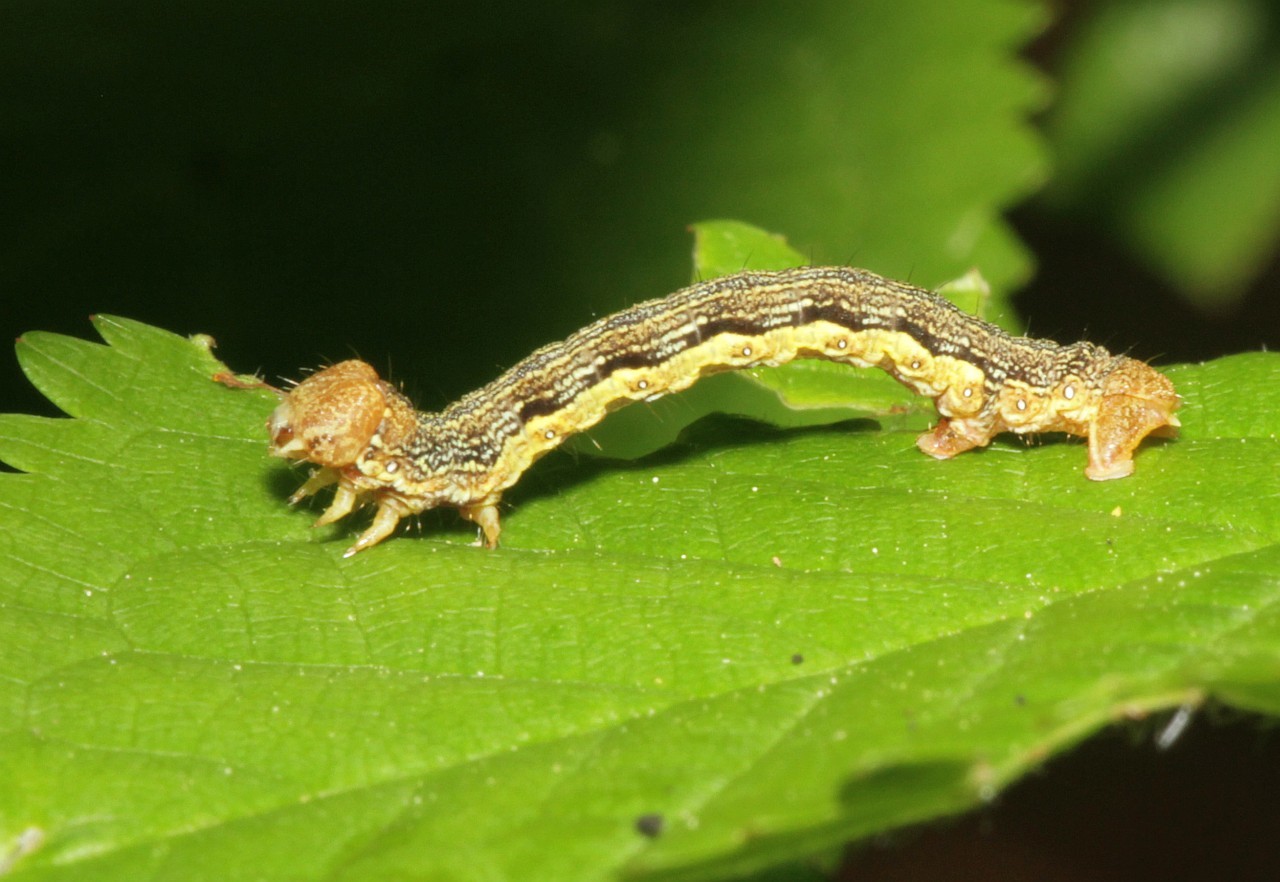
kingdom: Animalia
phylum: Arthropoda
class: Insecta
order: Lepidoptera
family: Geometridae
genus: Erannis
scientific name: Erannis defoliaria
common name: Mottled umber
